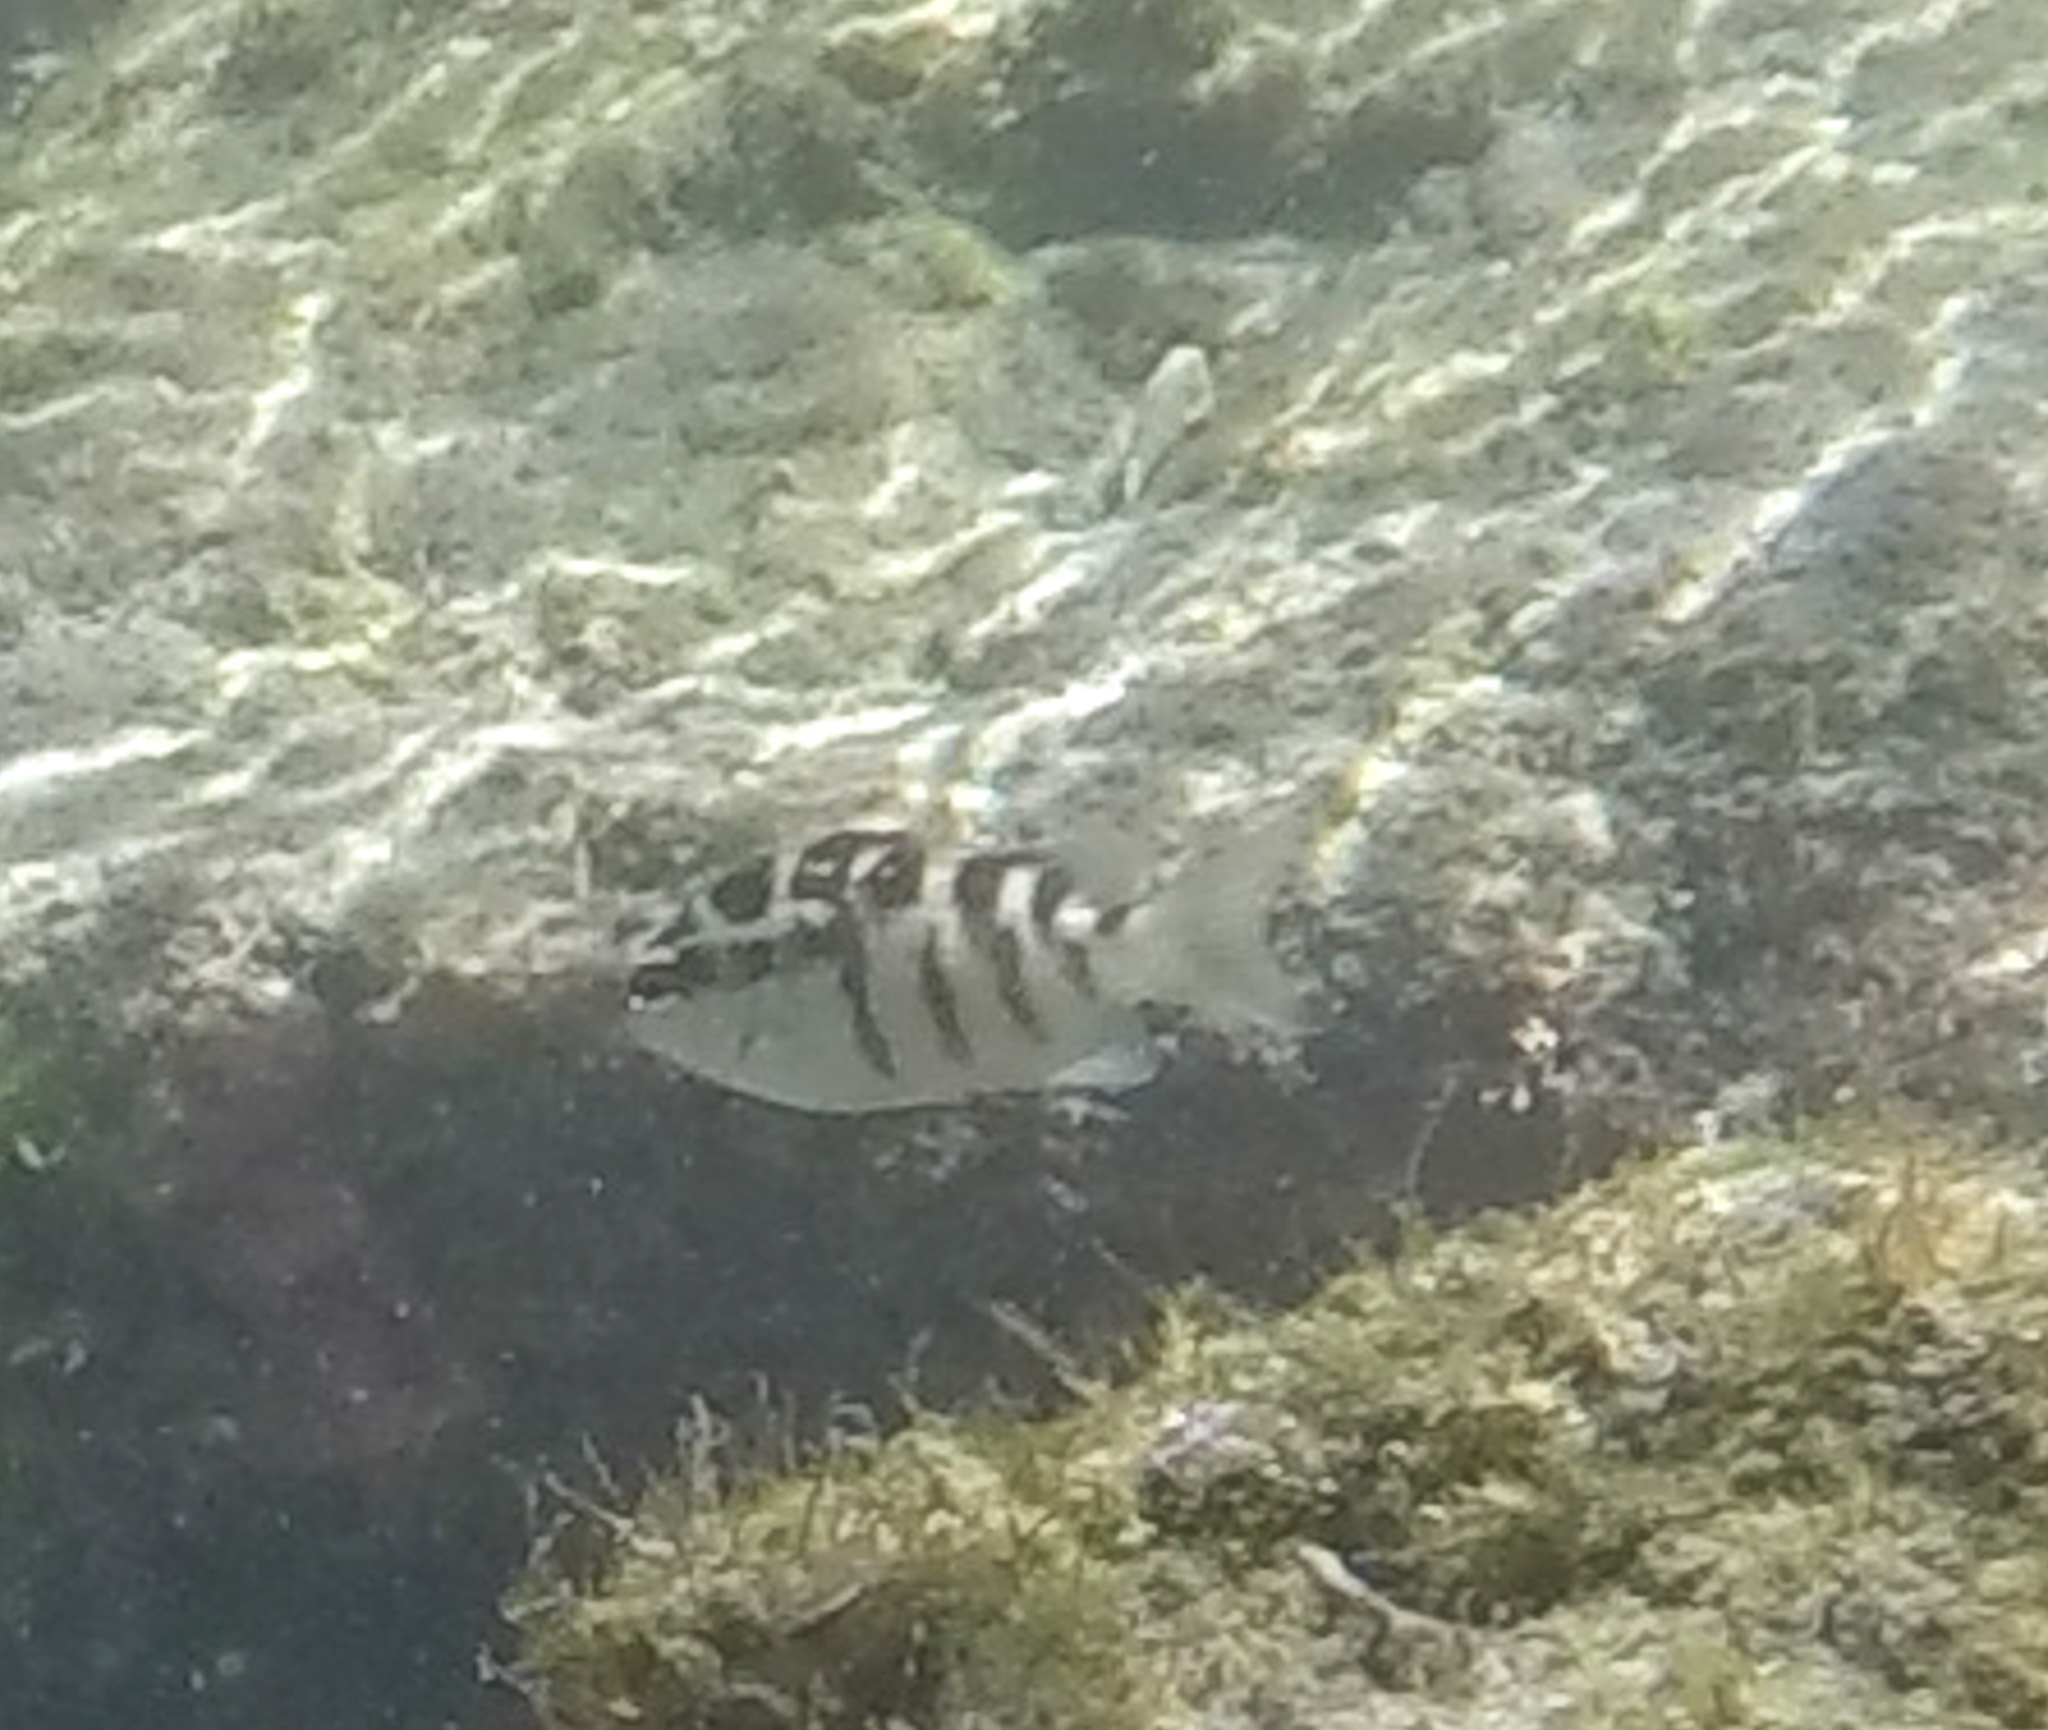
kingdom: Animalia
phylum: Chordata
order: Perciformes
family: Pomacentridae
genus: Abudefduf
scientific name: Abudefduf concolor
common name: Dusky seargent
